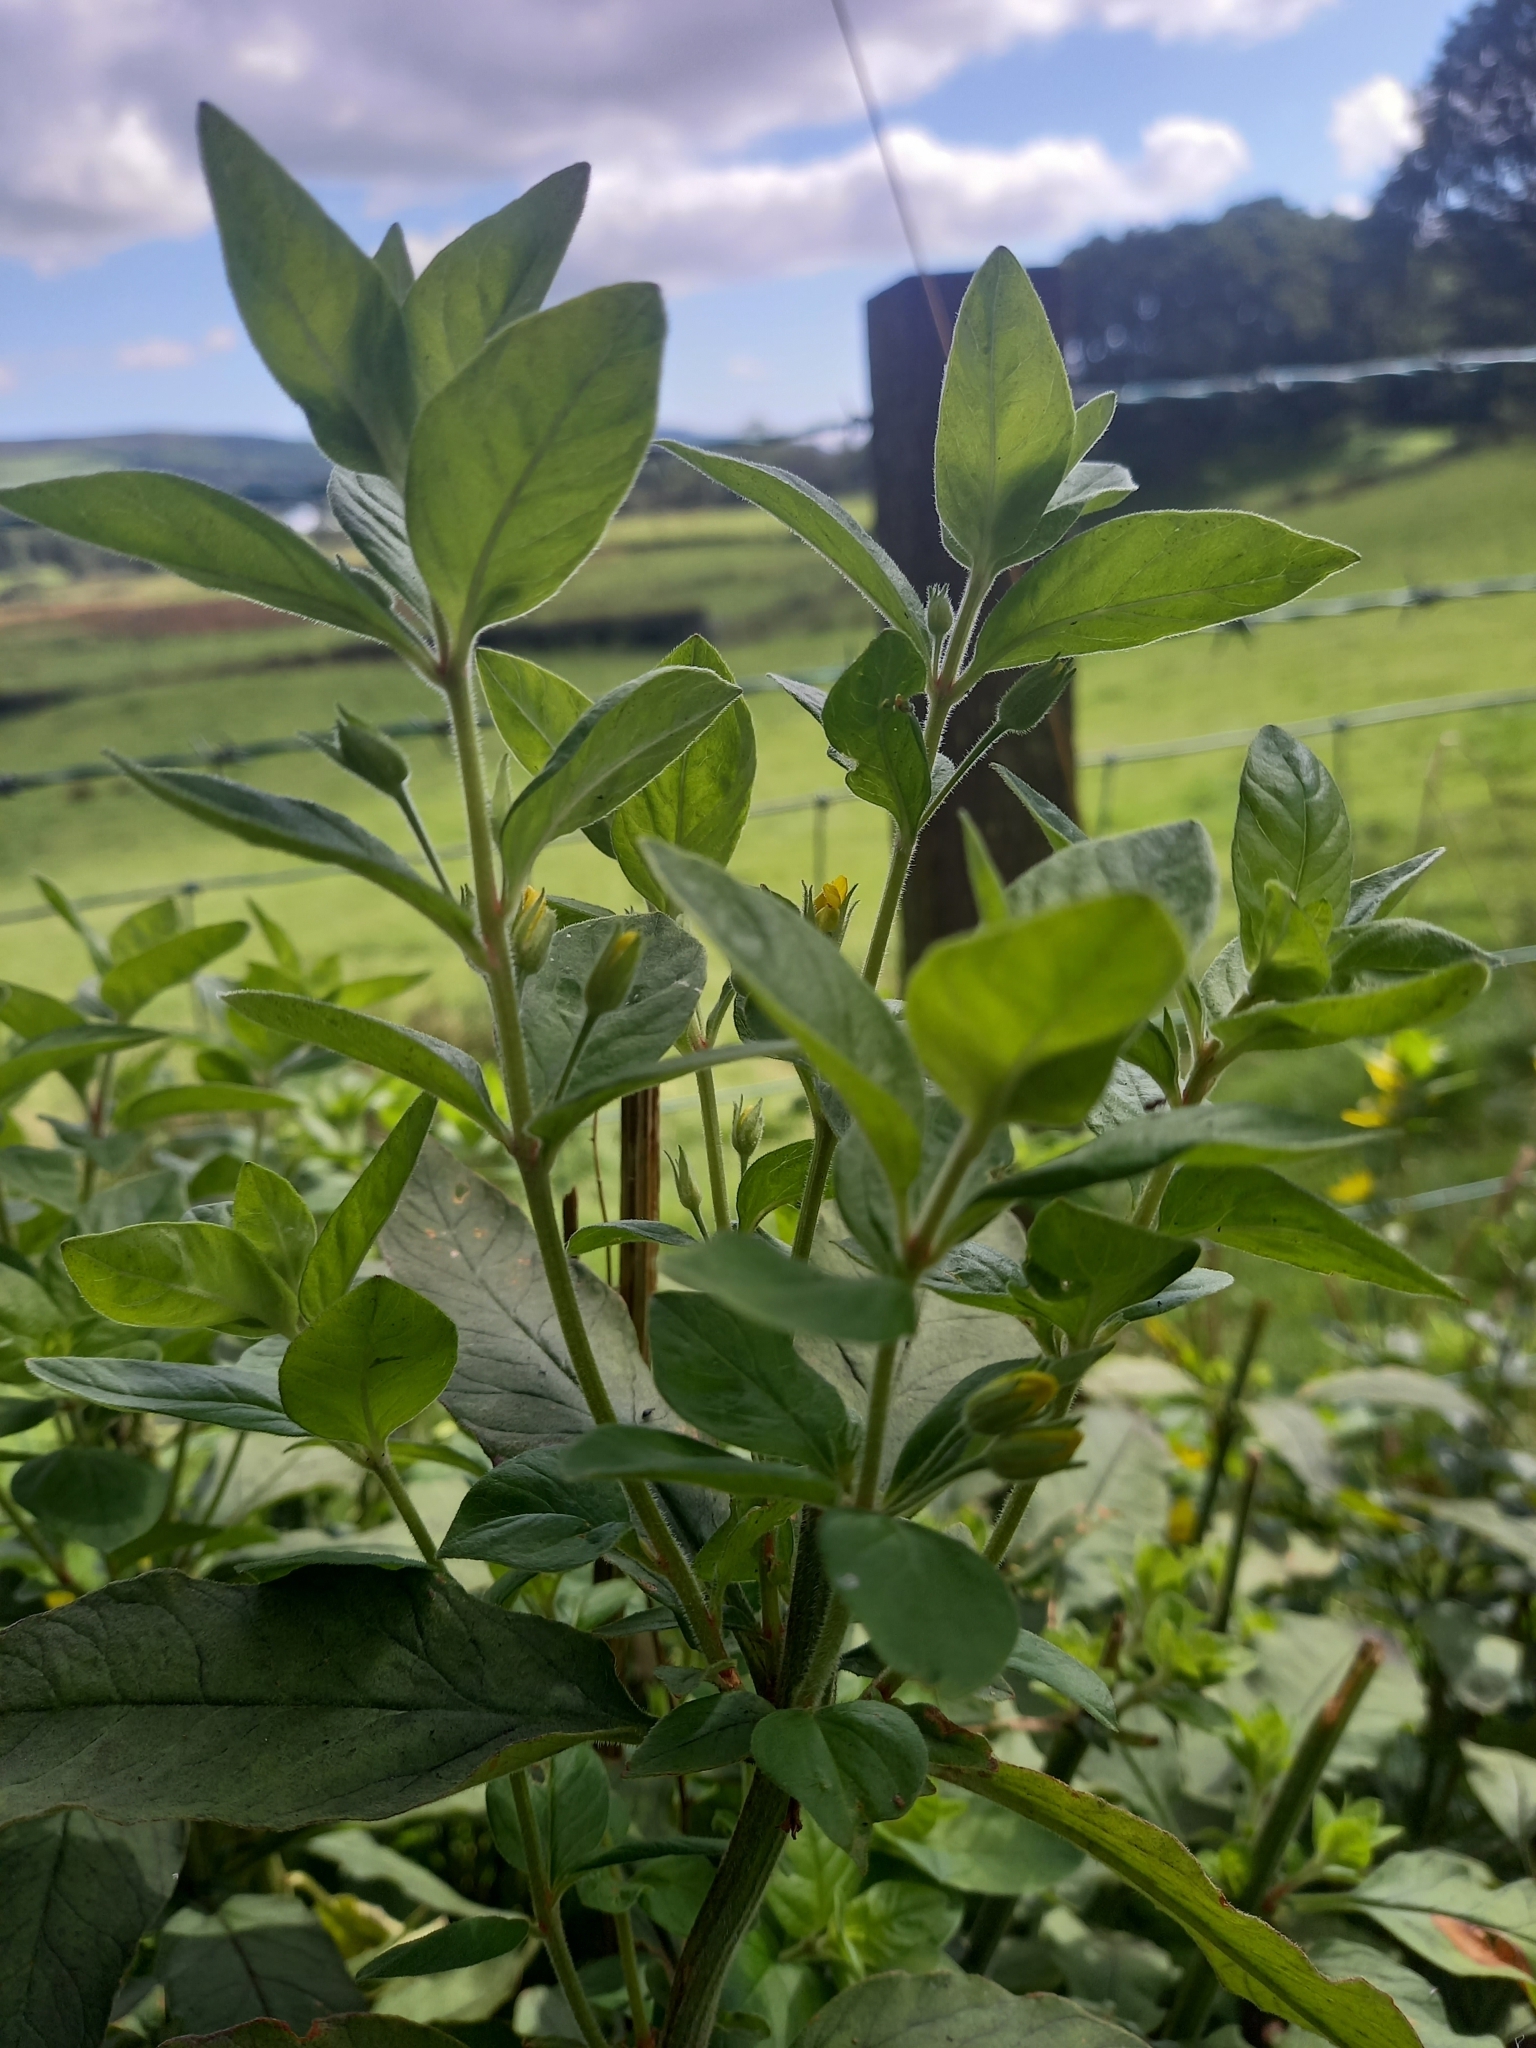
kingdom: Plantae
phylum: Tracheophyta
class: Magnoliopsida
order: Ericales
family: Primulaceae
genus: Lysimachia
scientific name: Lysimachia punctata
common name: Dotted loosestrife
